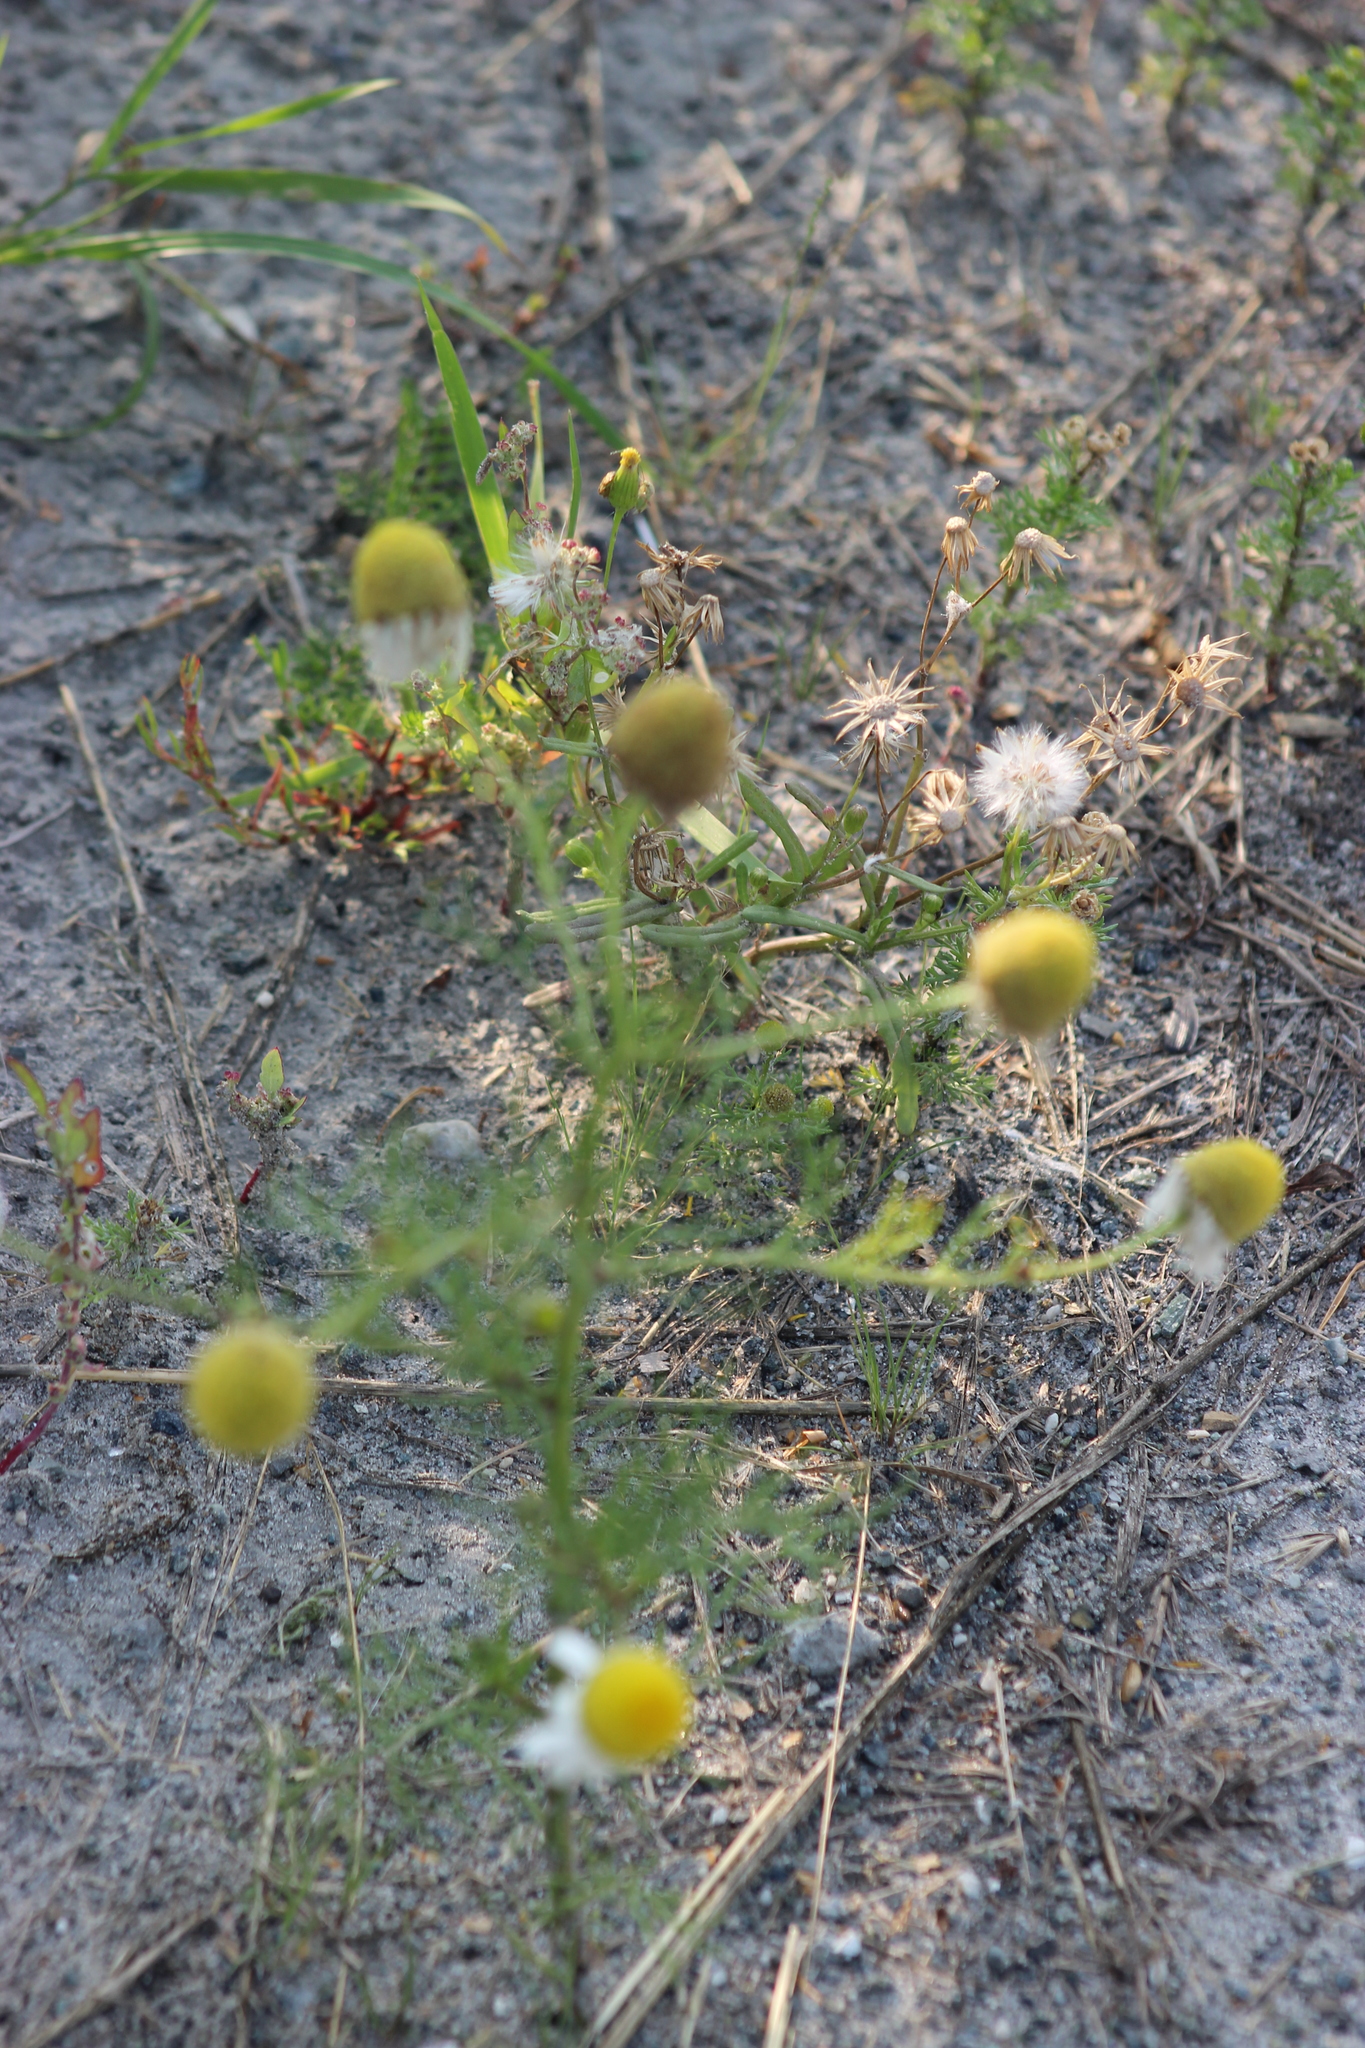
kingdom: Plantae
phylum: Tracheophyta
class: Magnoliopsida
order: Asterales
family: Asteraceae
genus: Tripleurospermum
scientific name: Tripleurospermum inodorum
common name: Scentless mayweed
